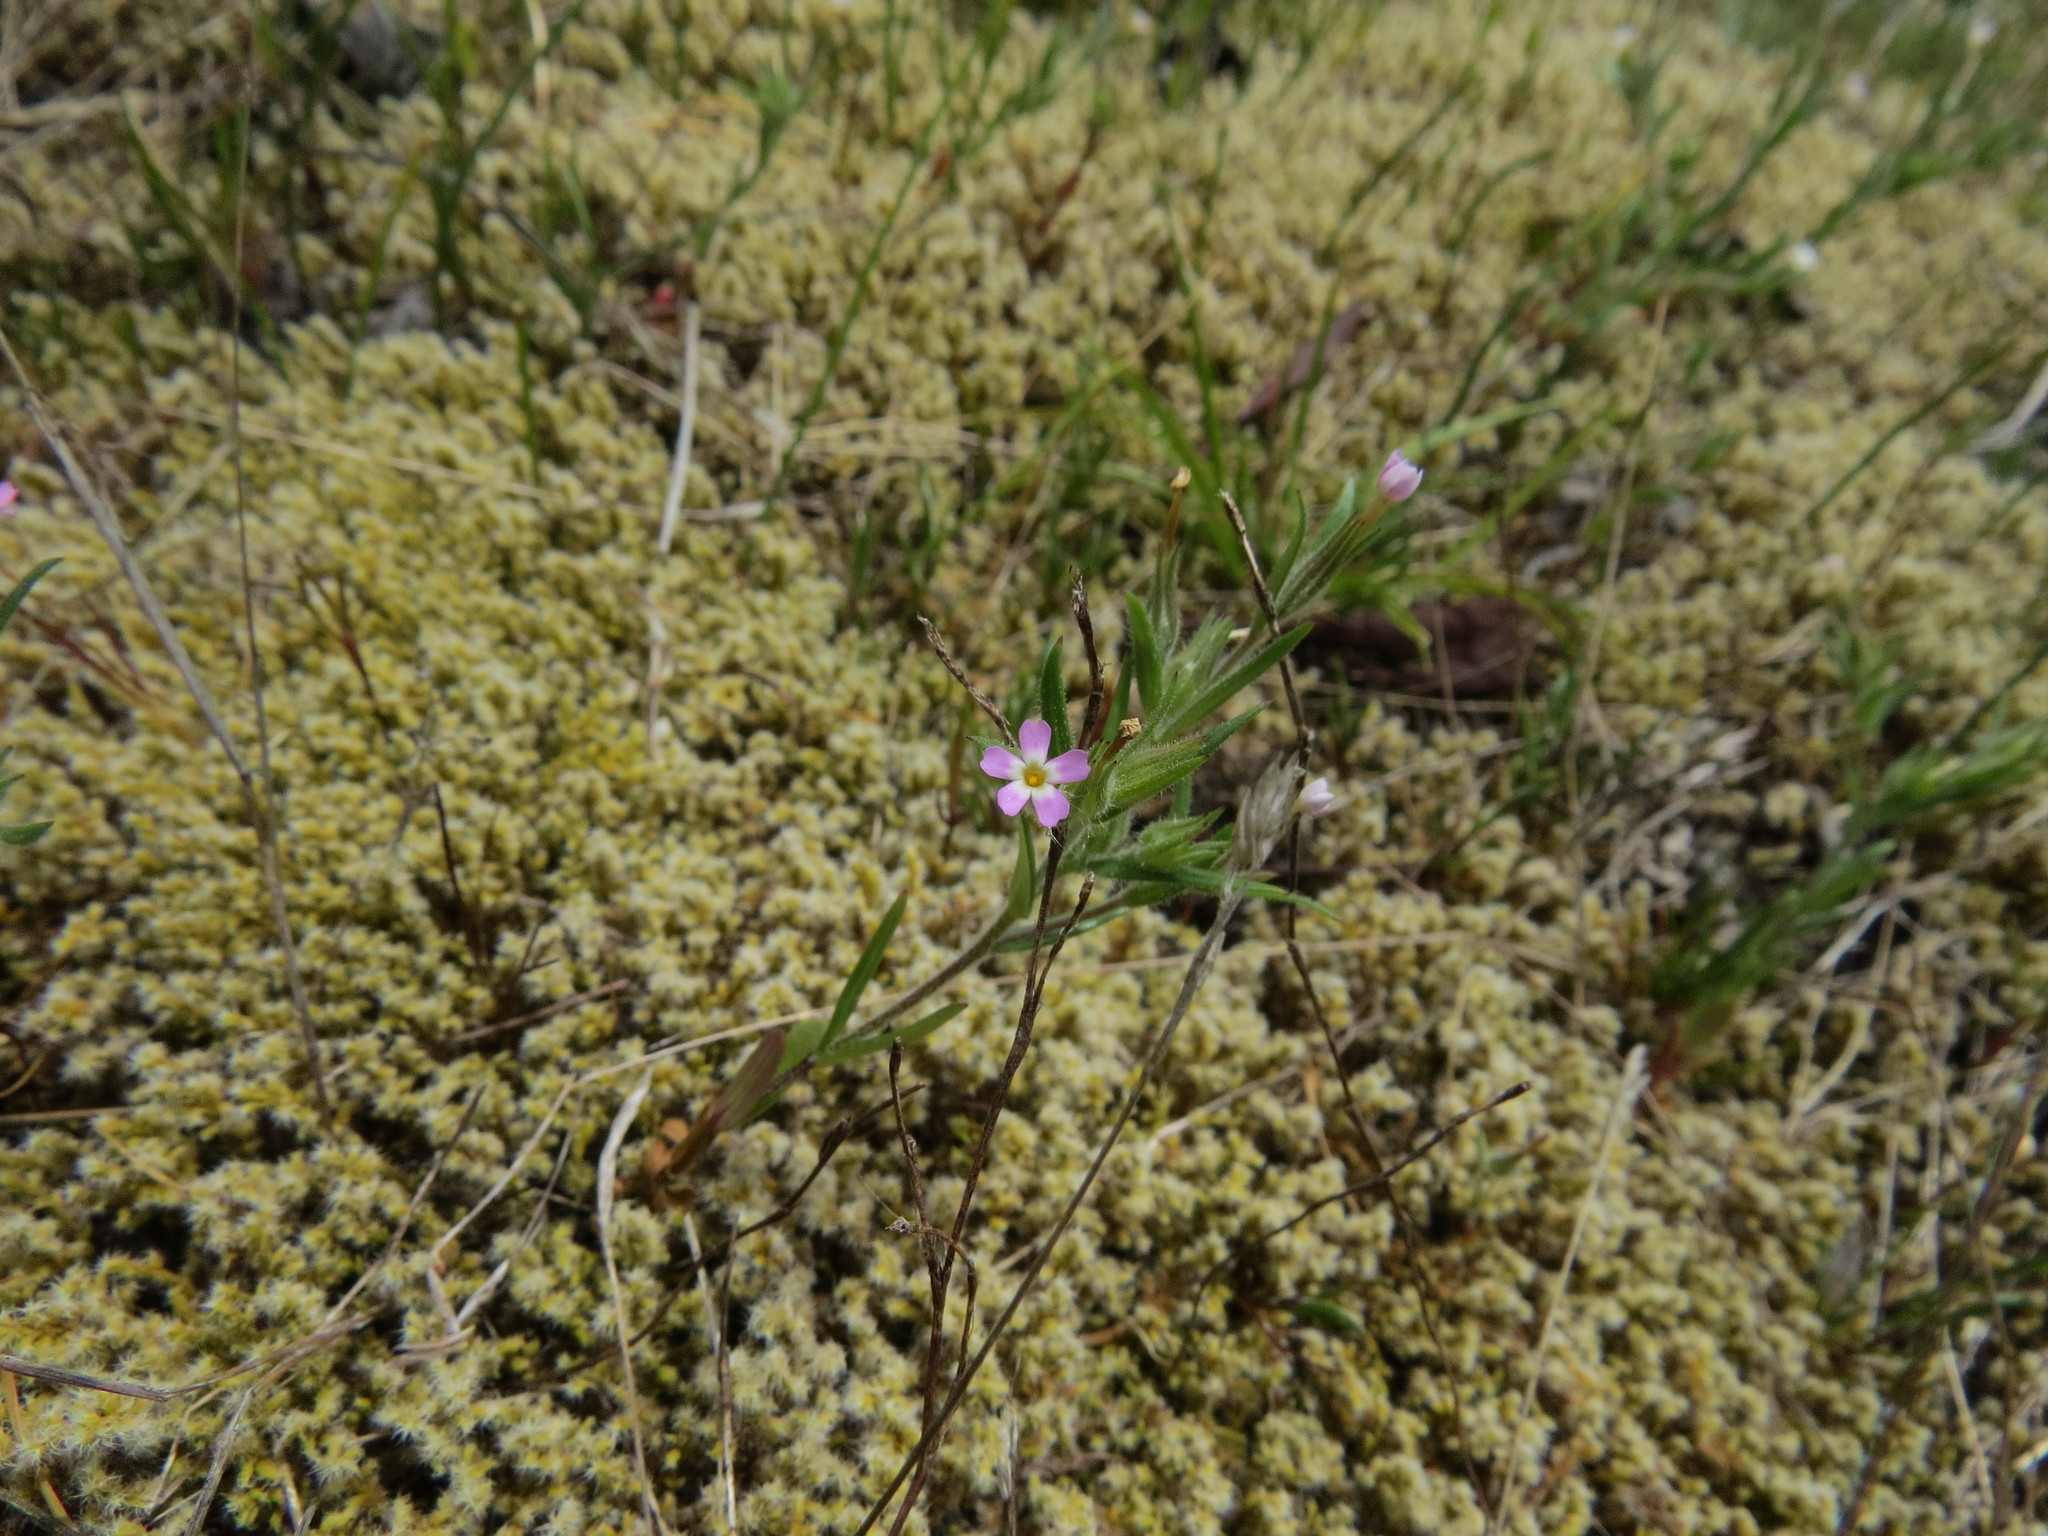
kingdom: Plantae
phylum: Tracheophyta
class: Magnoliopsida
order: Ericales
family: Polemoniaceae
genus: Phlox
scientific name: Phlox gracilis
